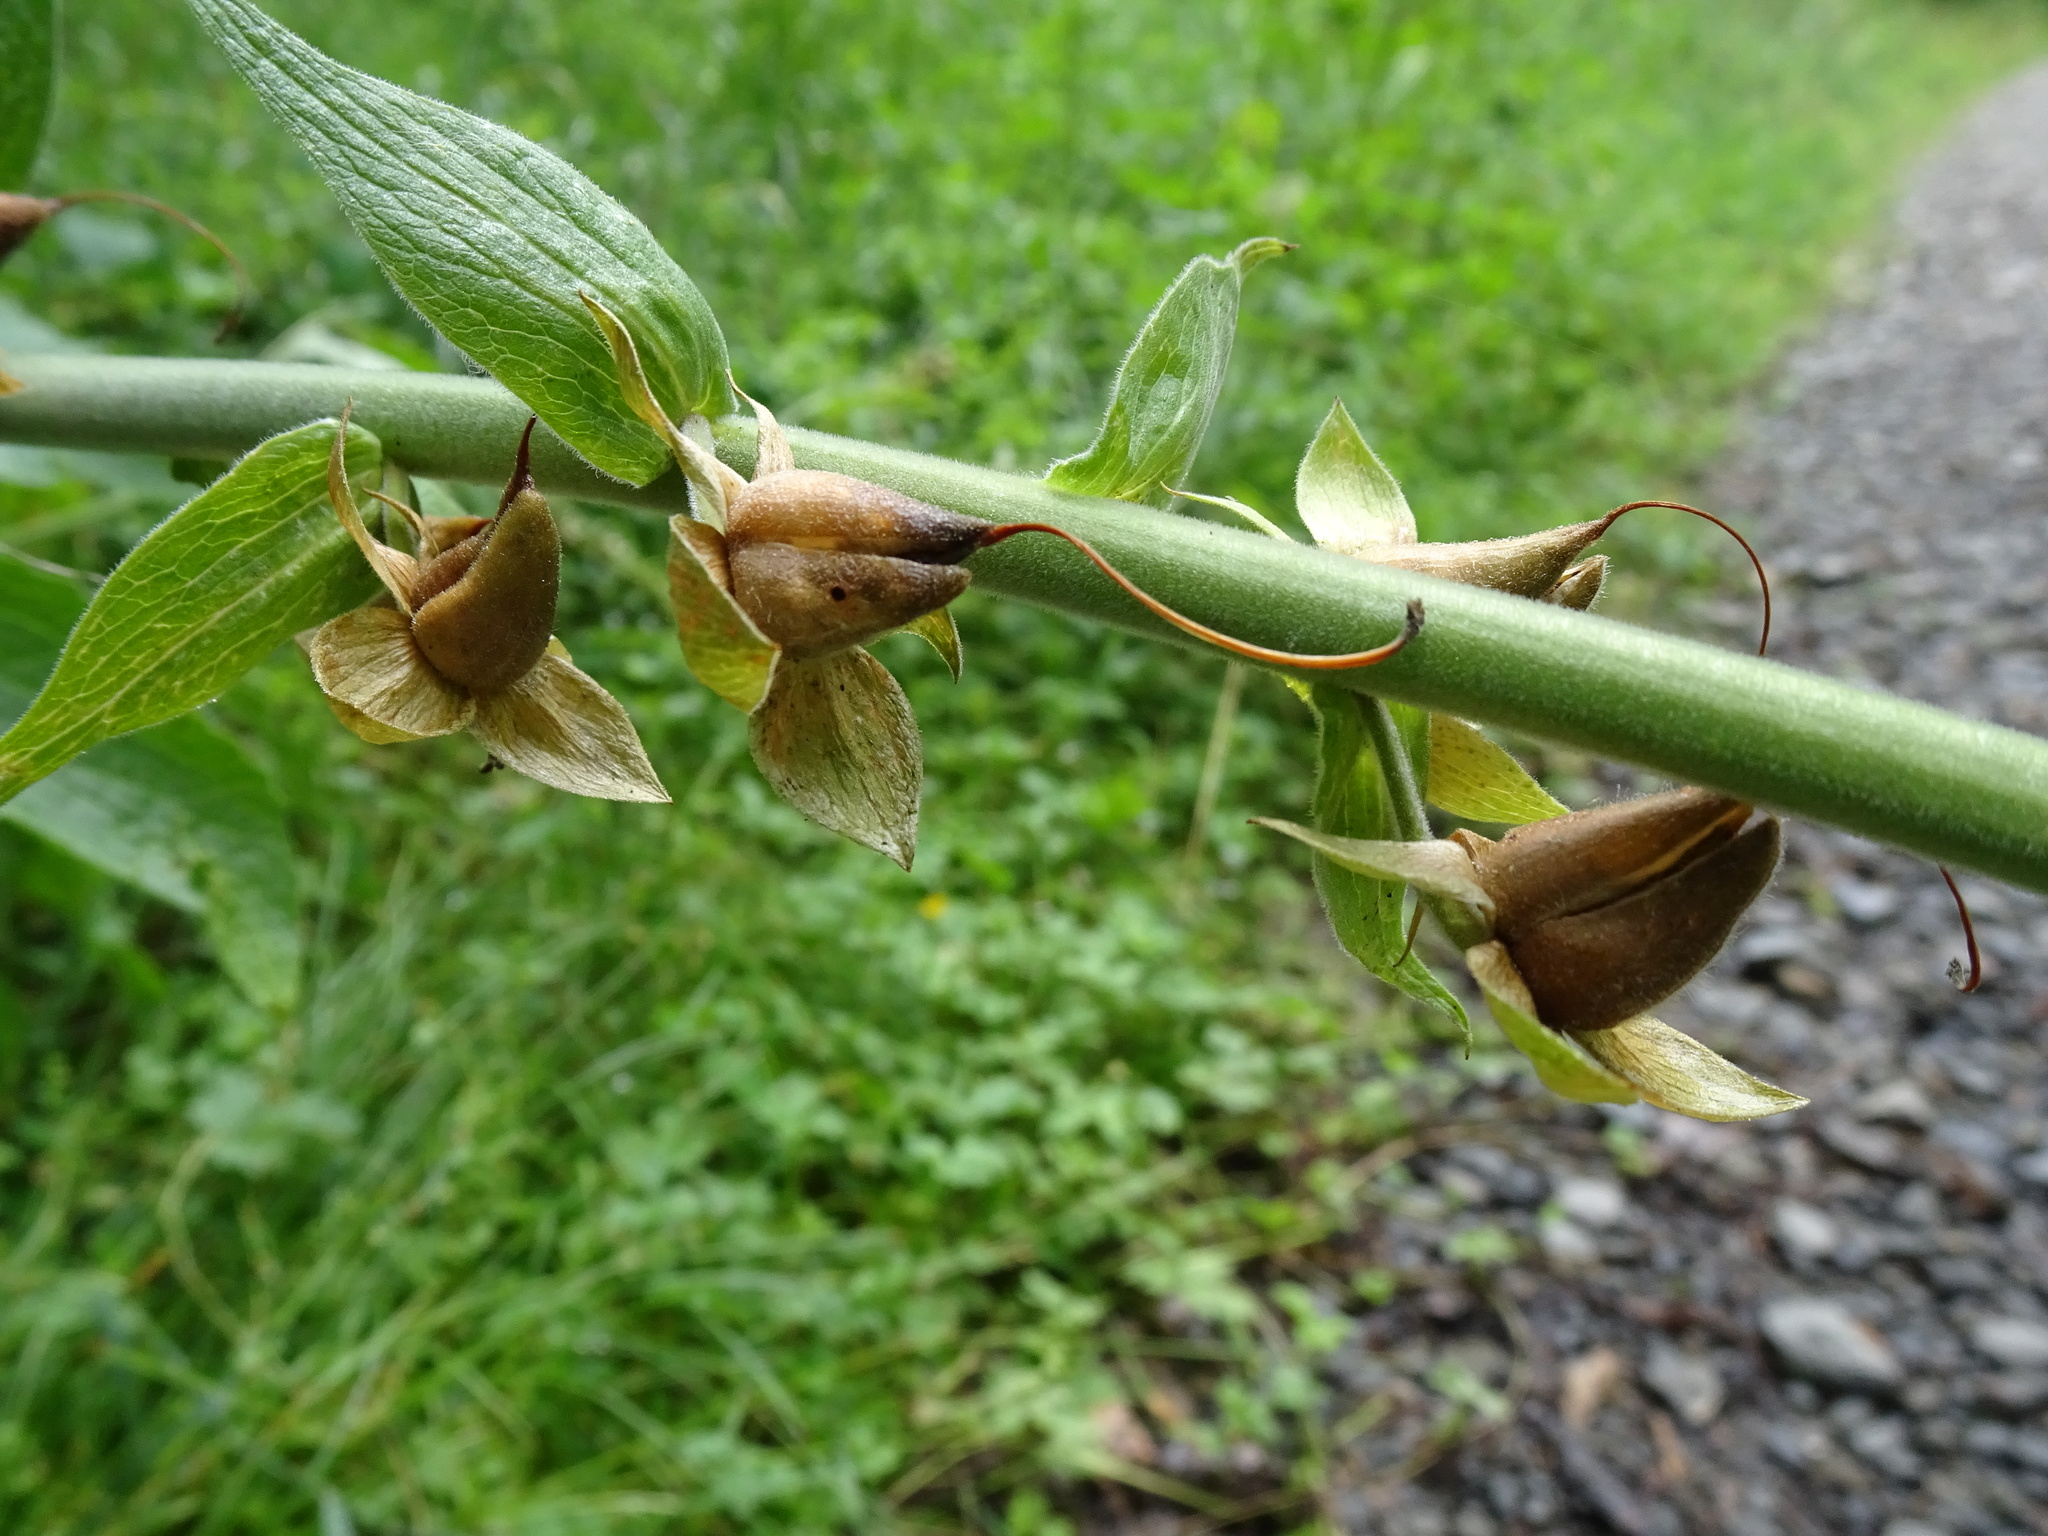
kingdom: Plantae
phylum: Tracheophyta
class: Magnoliopsida
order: Lamiales
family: Plantaginaceae
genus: Digitalis
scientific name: Digitalis purpurea
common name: Foxglove
